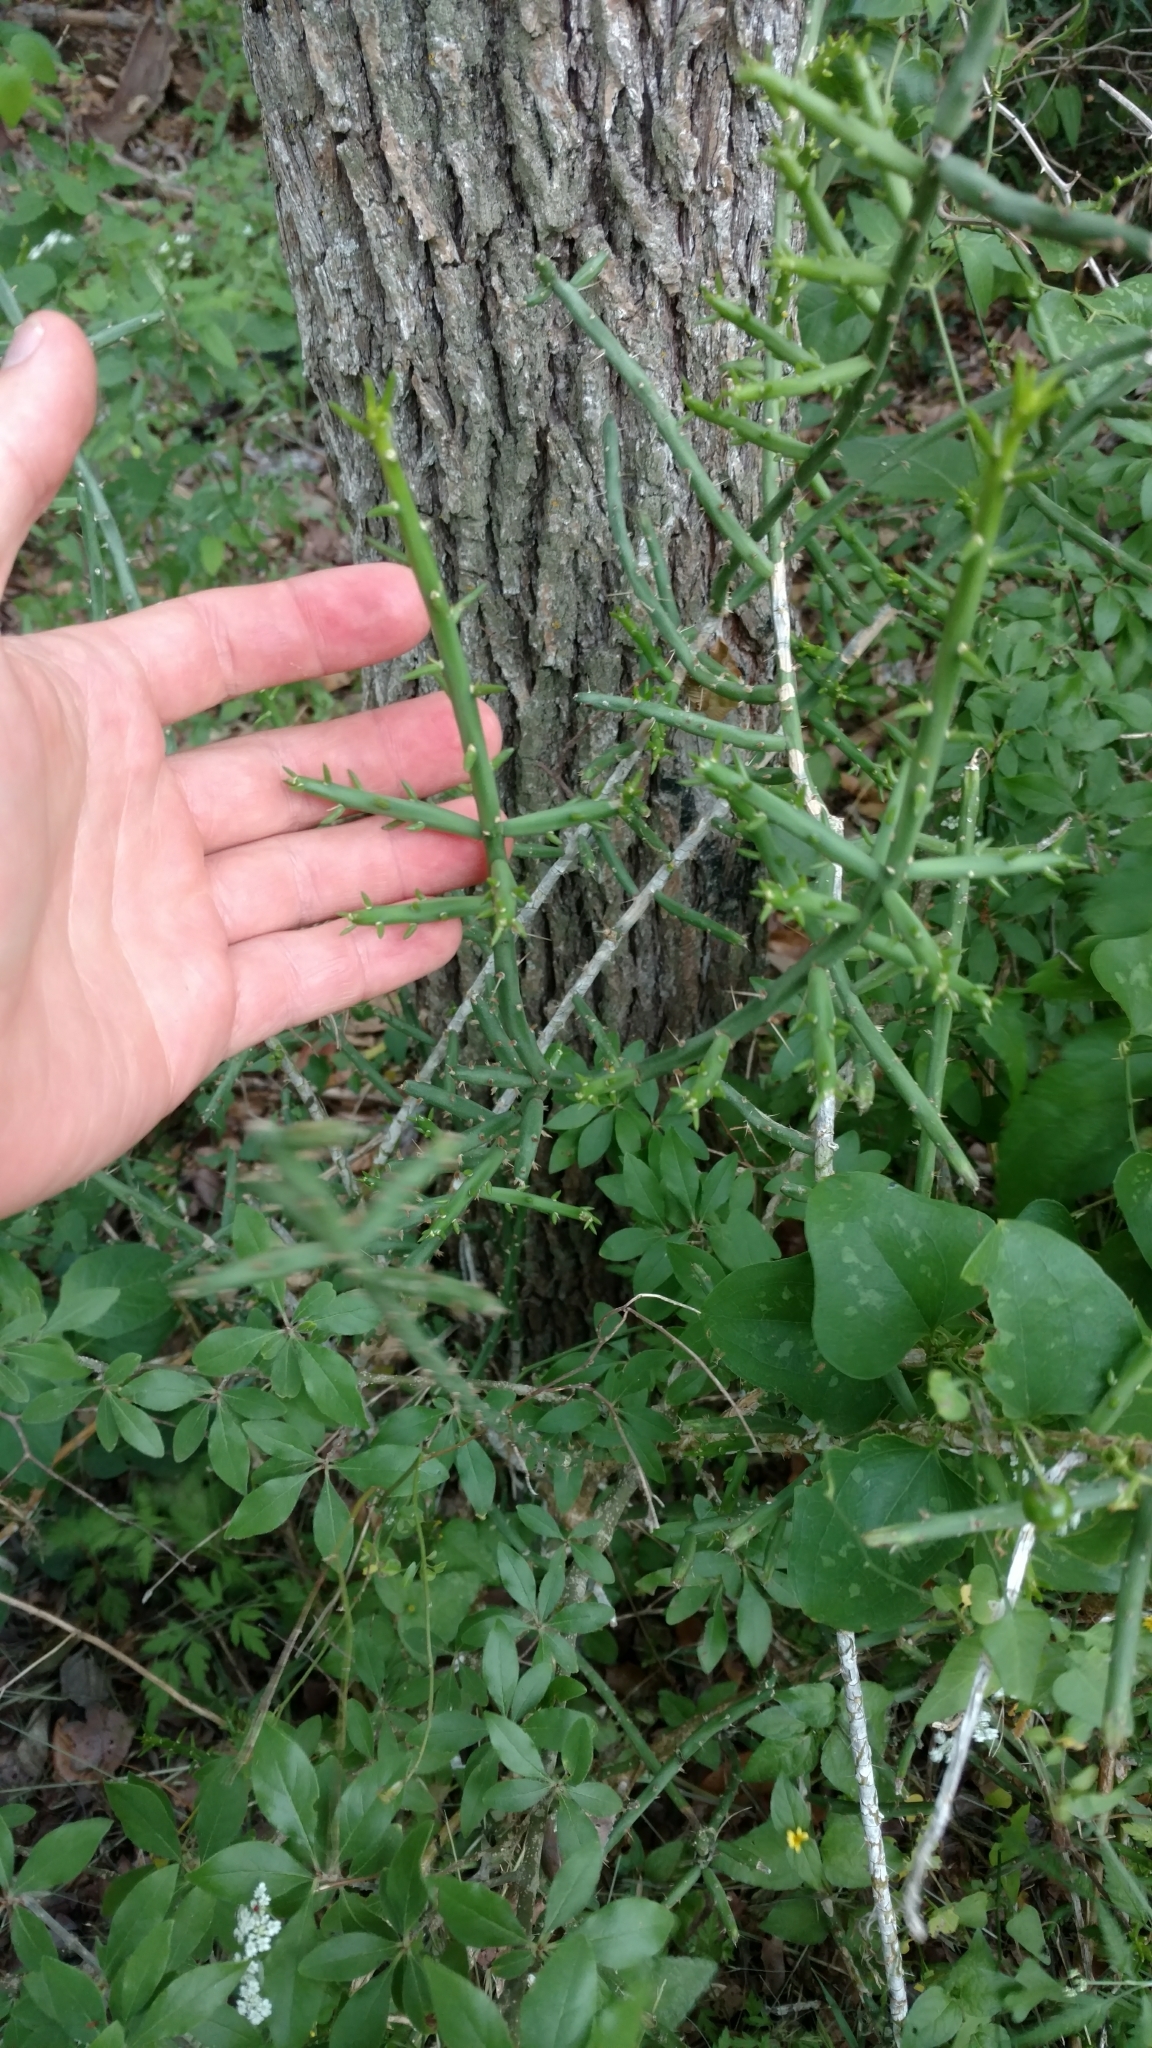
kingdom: Plantae
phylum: Tracheophyta
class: Magnoliopsida
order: Caryophyllales
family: Cactaceae
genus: Cylindropuntia
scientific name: Cylindropuntia leptocaulis
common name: Christmas cactus
